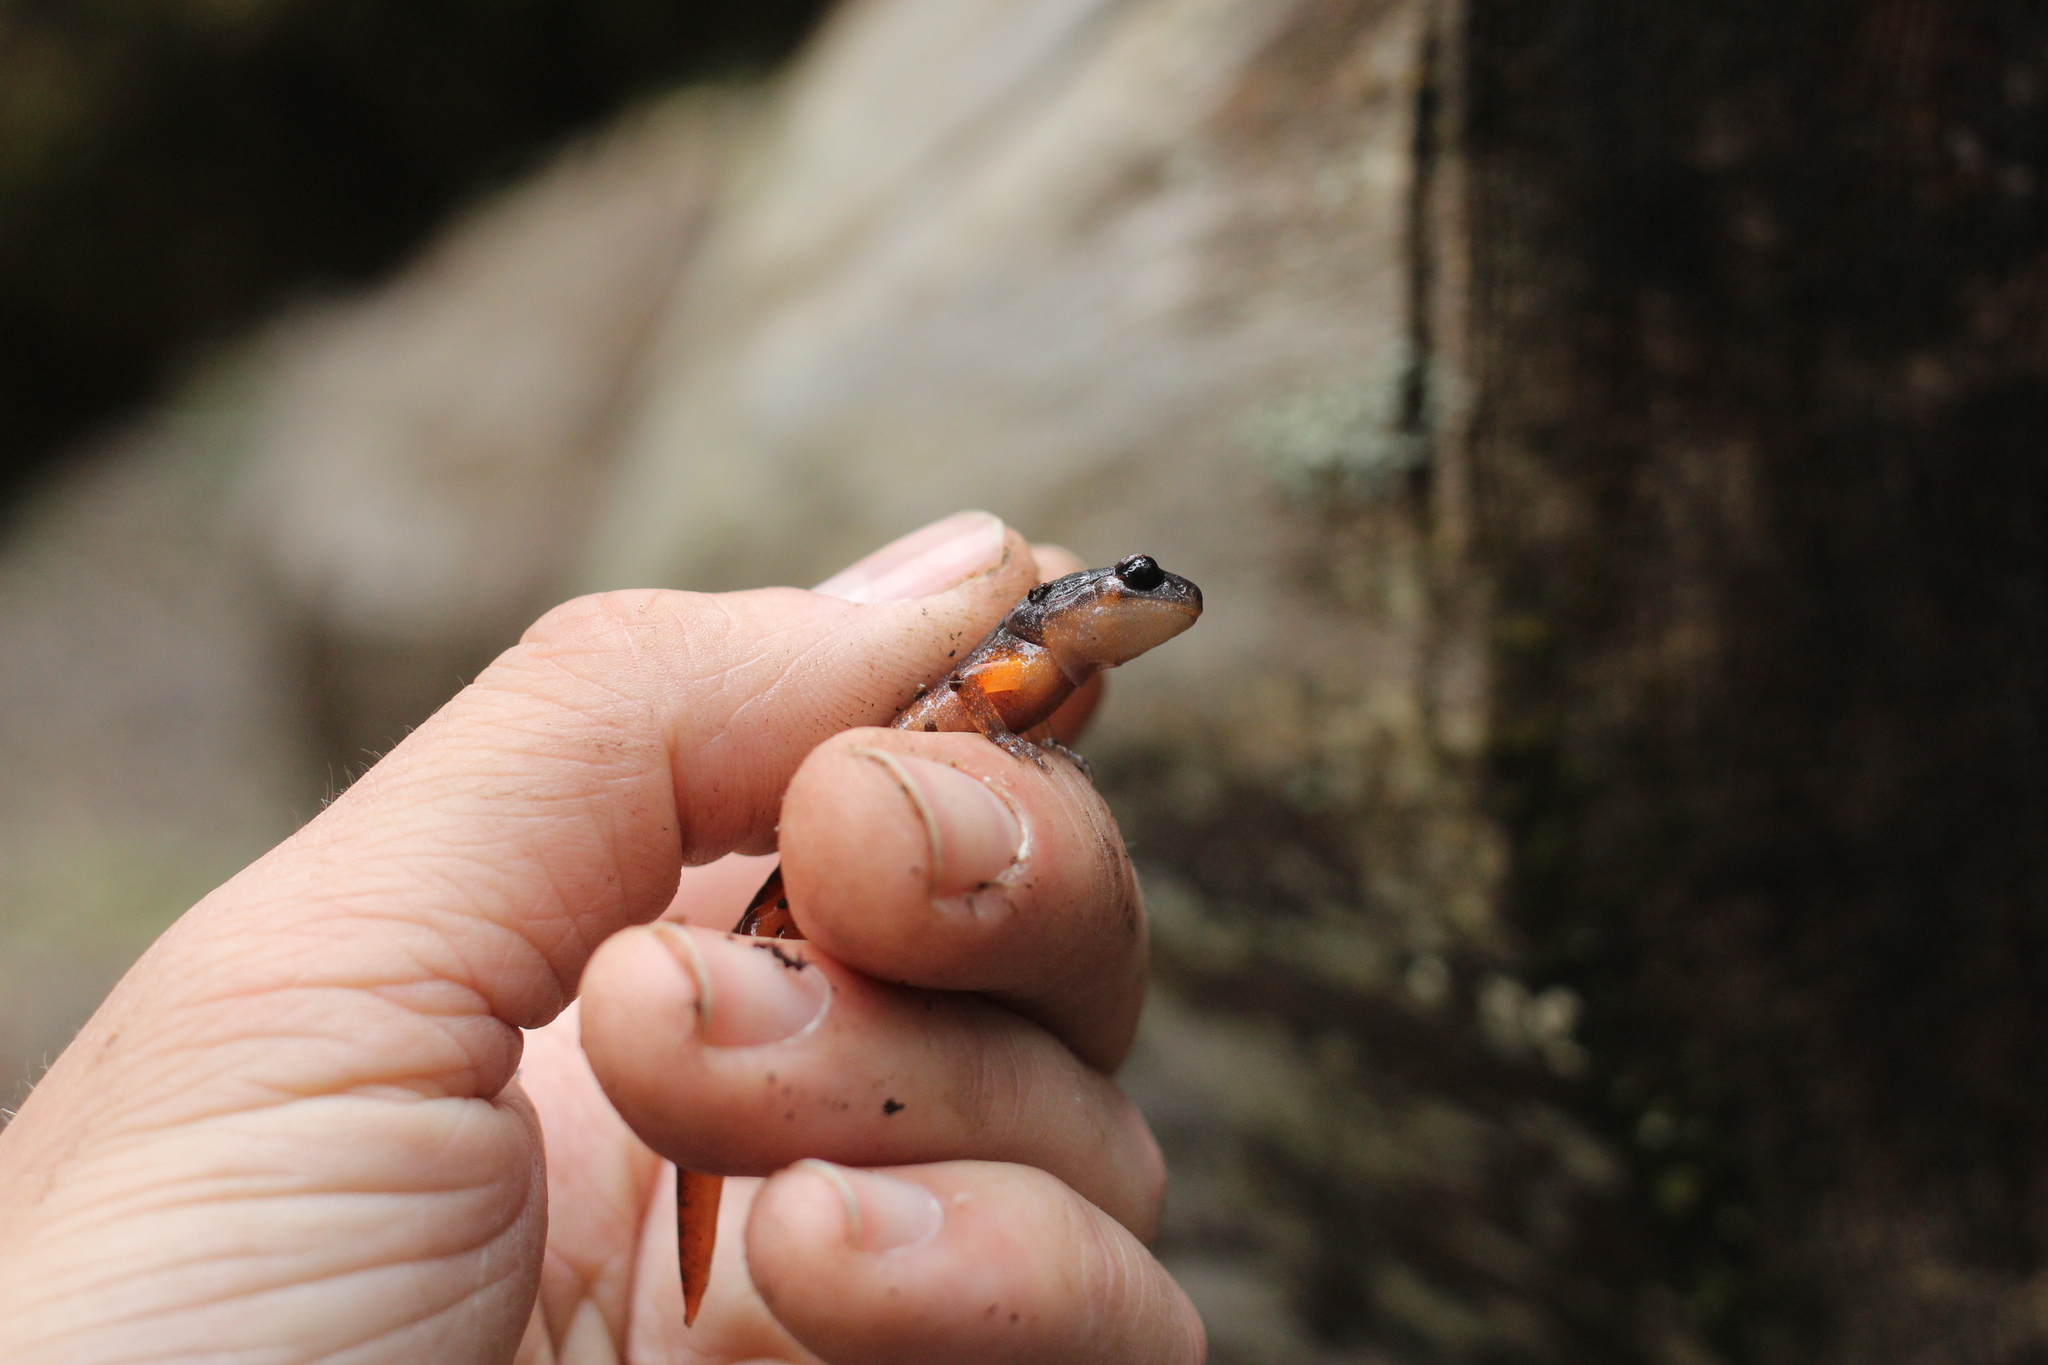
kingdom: Animalia
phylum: Chordata
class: Amphibia
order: Caudata
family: Plethodontidae
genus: Ensatina
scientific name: Ensatina eschscholtzii
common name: Ensatina
